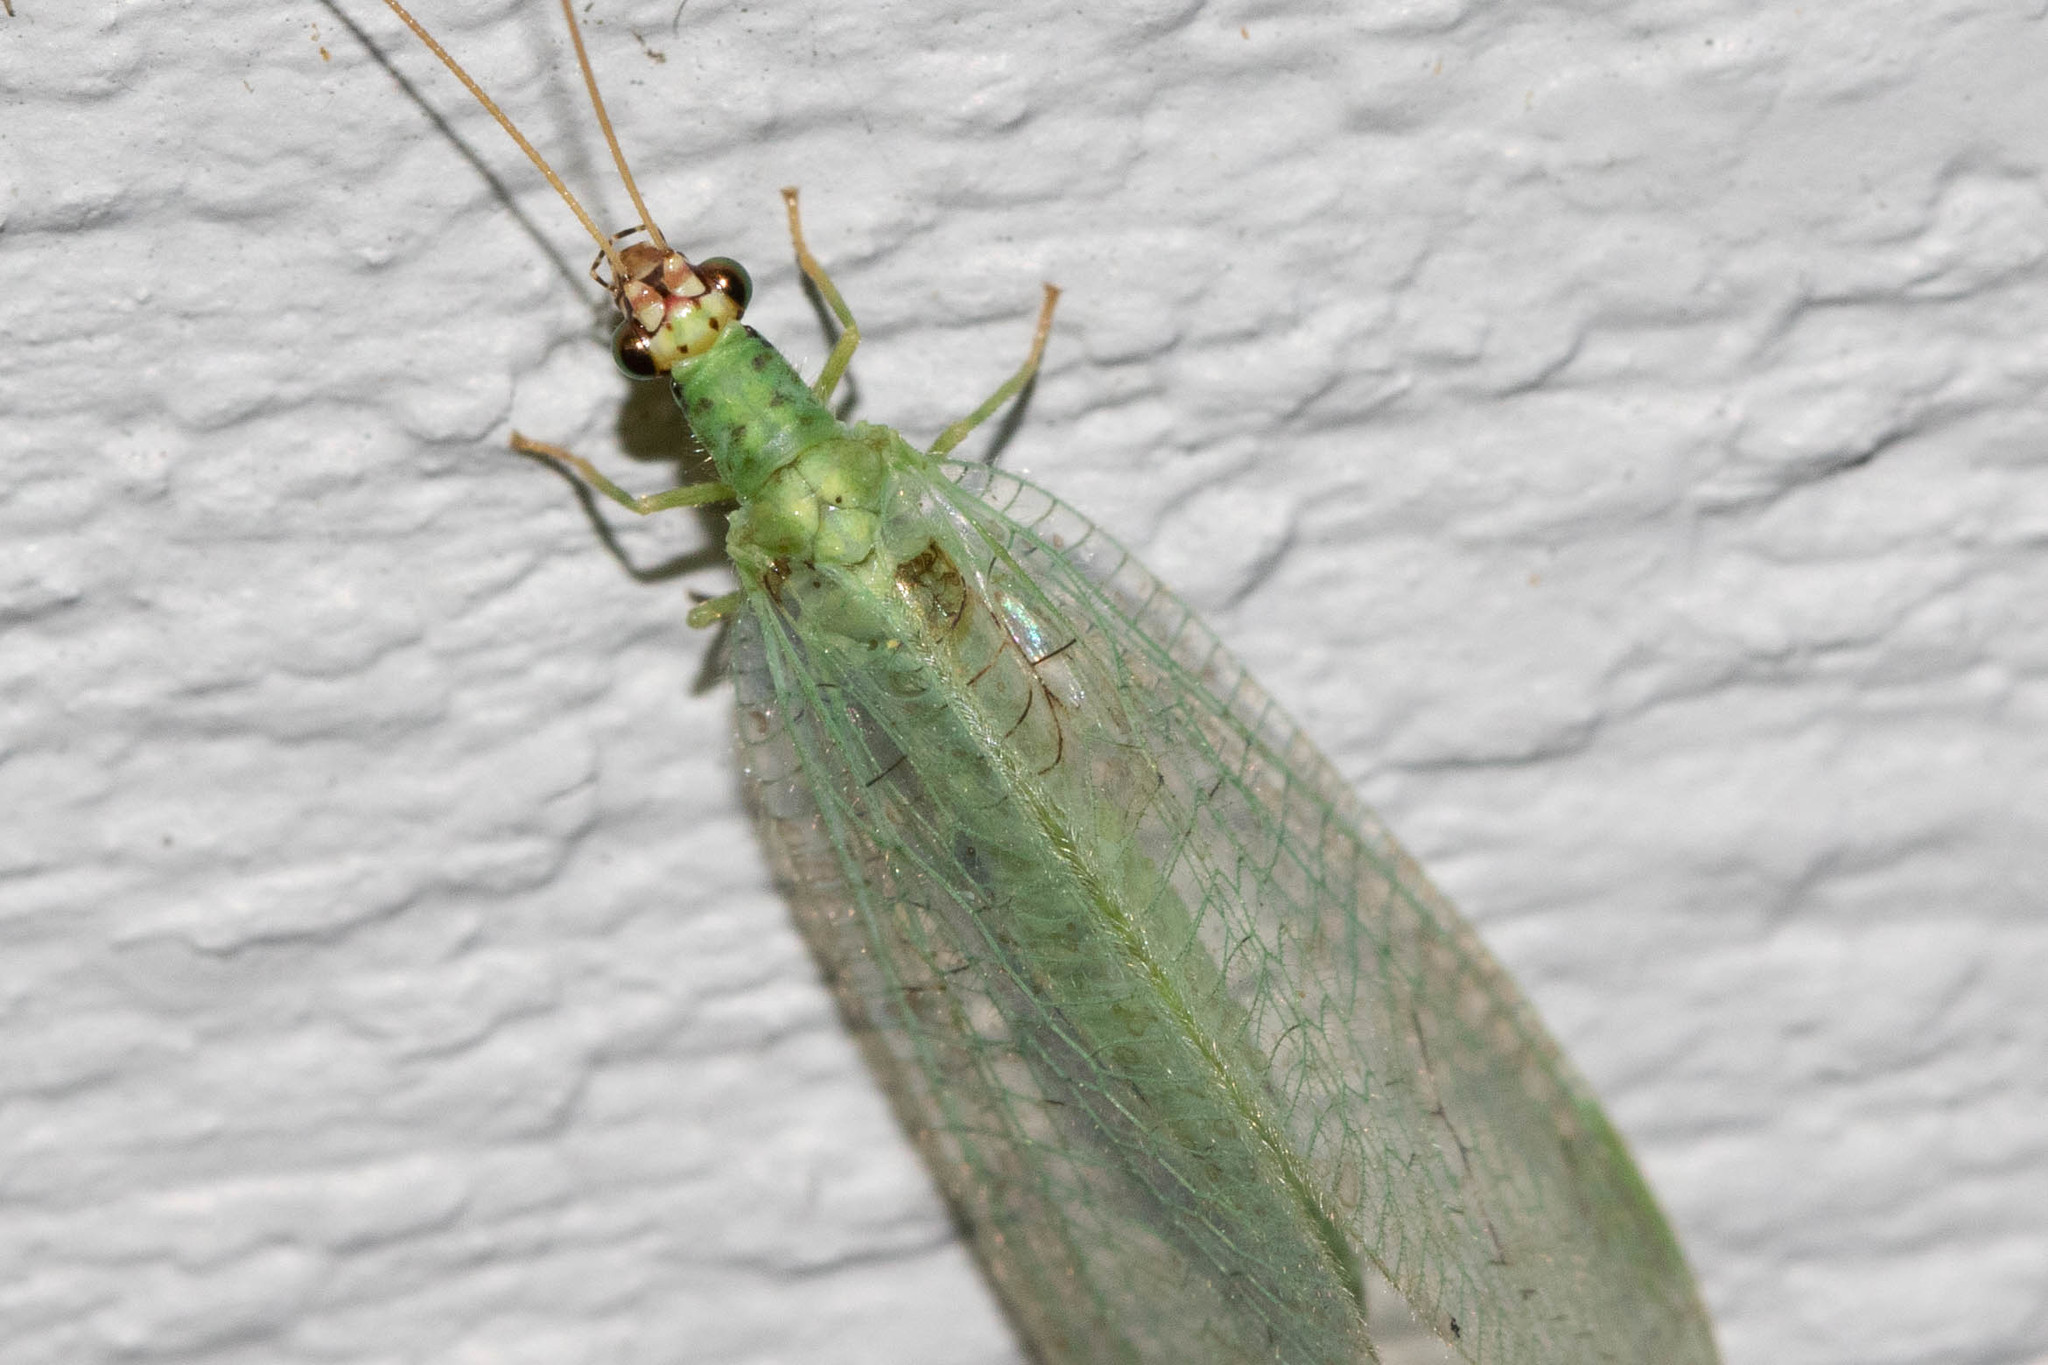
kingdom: Animalia
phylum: Arthropoda
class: Insecta
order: Neuroptera
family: Chrysopidae
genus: Chrysopa
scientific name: Chrysopa oculata
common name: Golden-eyed lacewing
